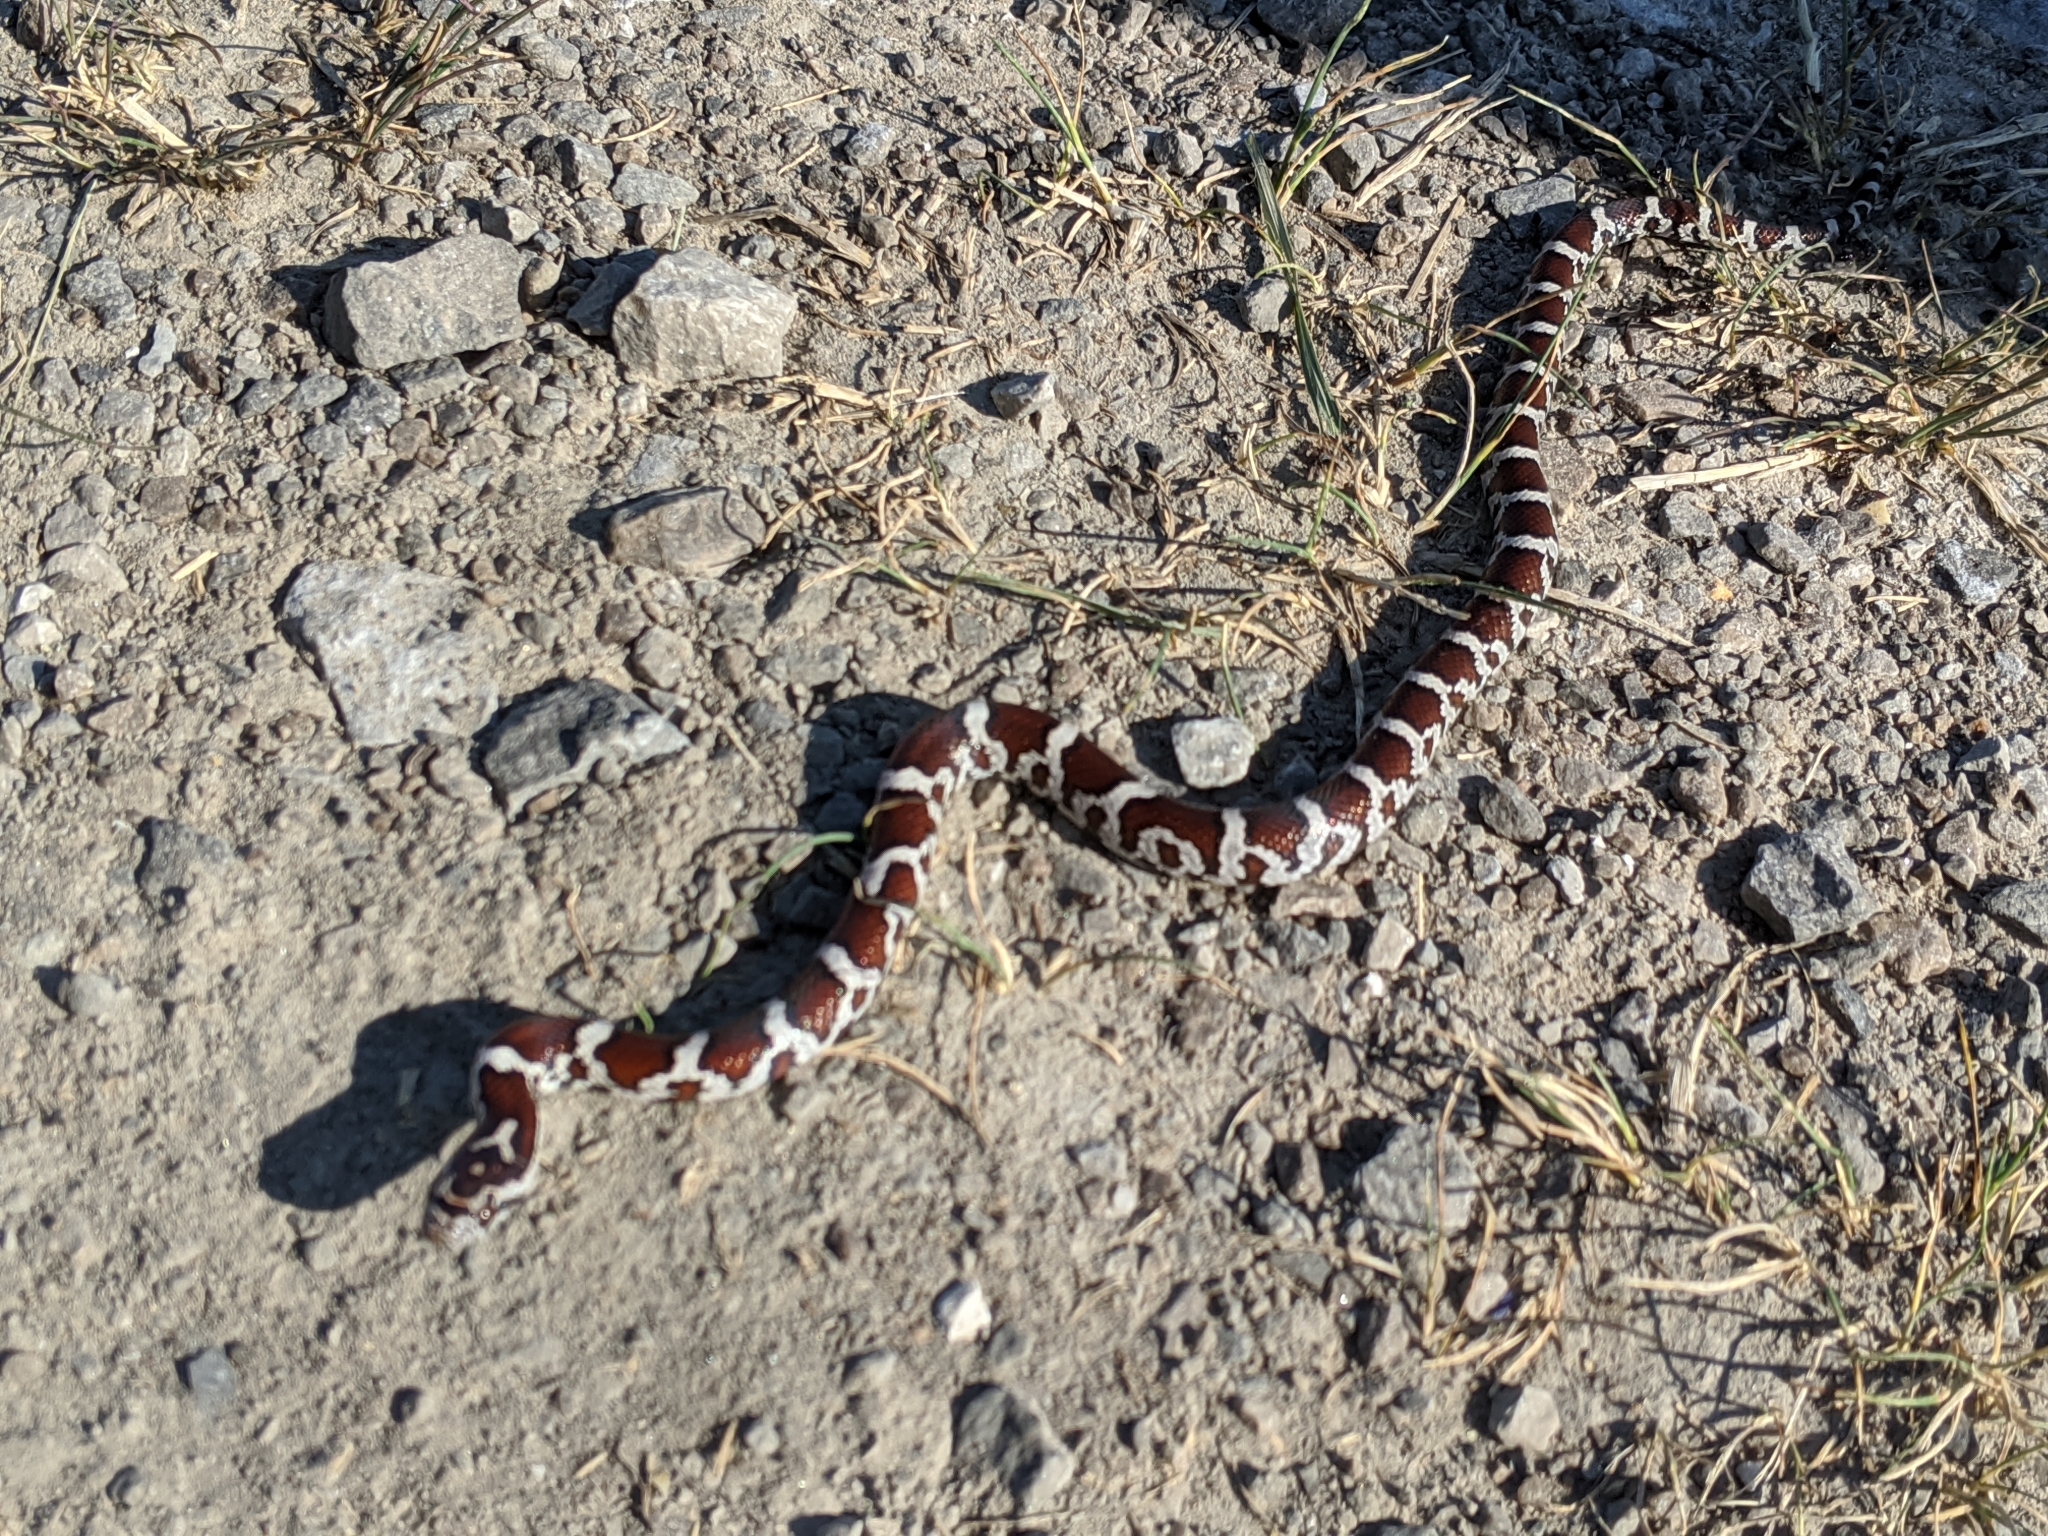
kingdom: Animalia
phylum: Chordata
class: Squamata
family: Colubridae
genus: Lampropeltis
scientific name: Lampropeltis triangulum
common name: Eastern milksnake
